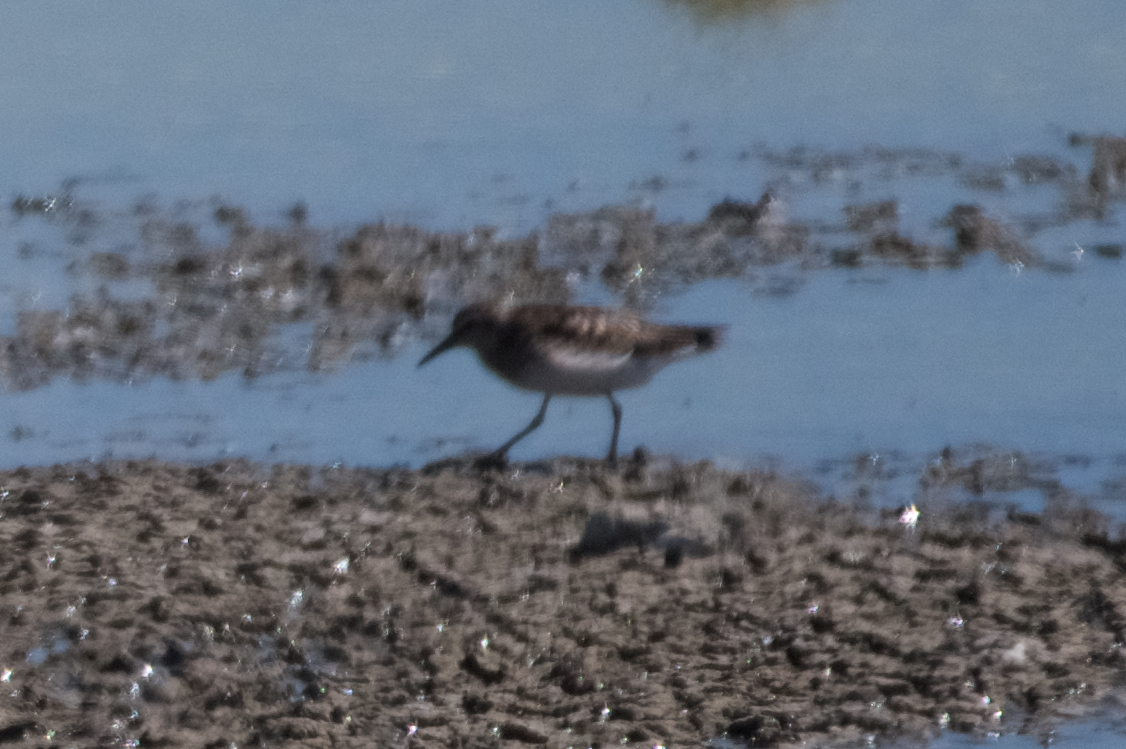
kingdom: Animalia
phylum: Chordata
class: Aves
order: Charadriiformes
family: Scolopacidae
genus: Calidris
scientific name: Calidris minutilla
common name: Least sandpiper
